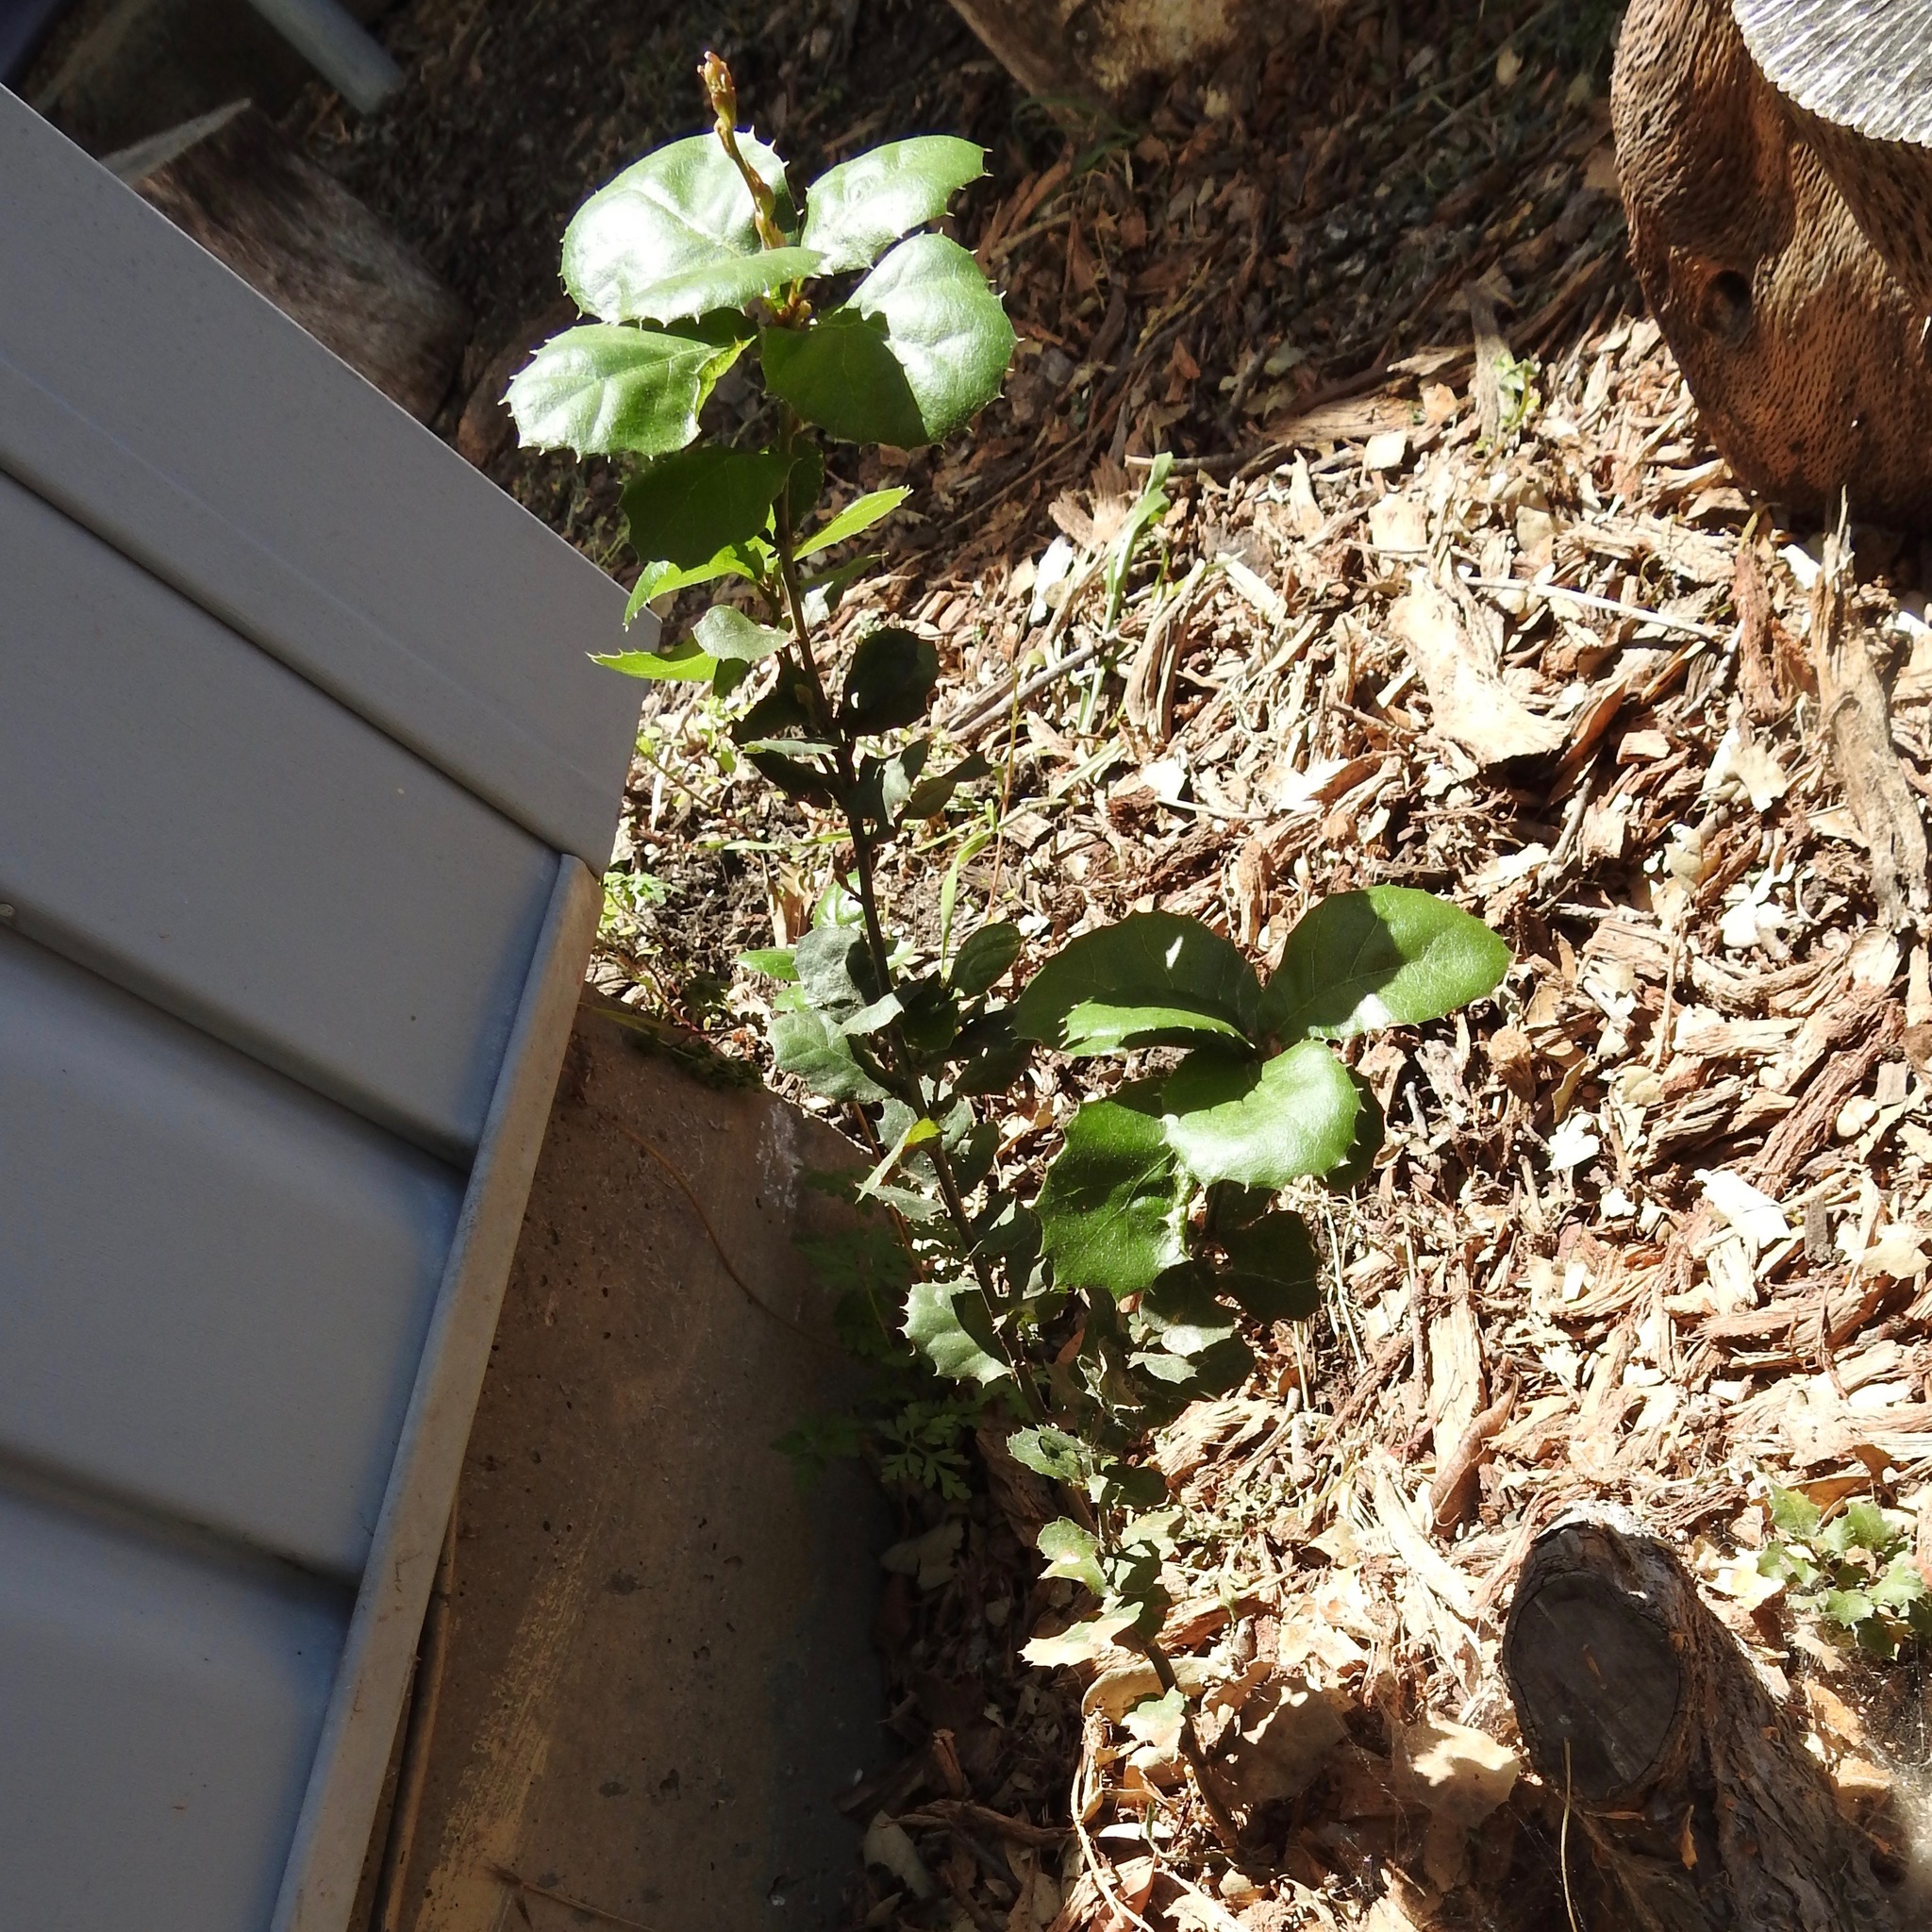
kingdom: Plantae
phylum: Tracheophyta
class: Magnoliopsida
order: Fagales
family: Fagaceae
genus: Quercus
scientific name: Quercus agrifolia
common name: California live oak
